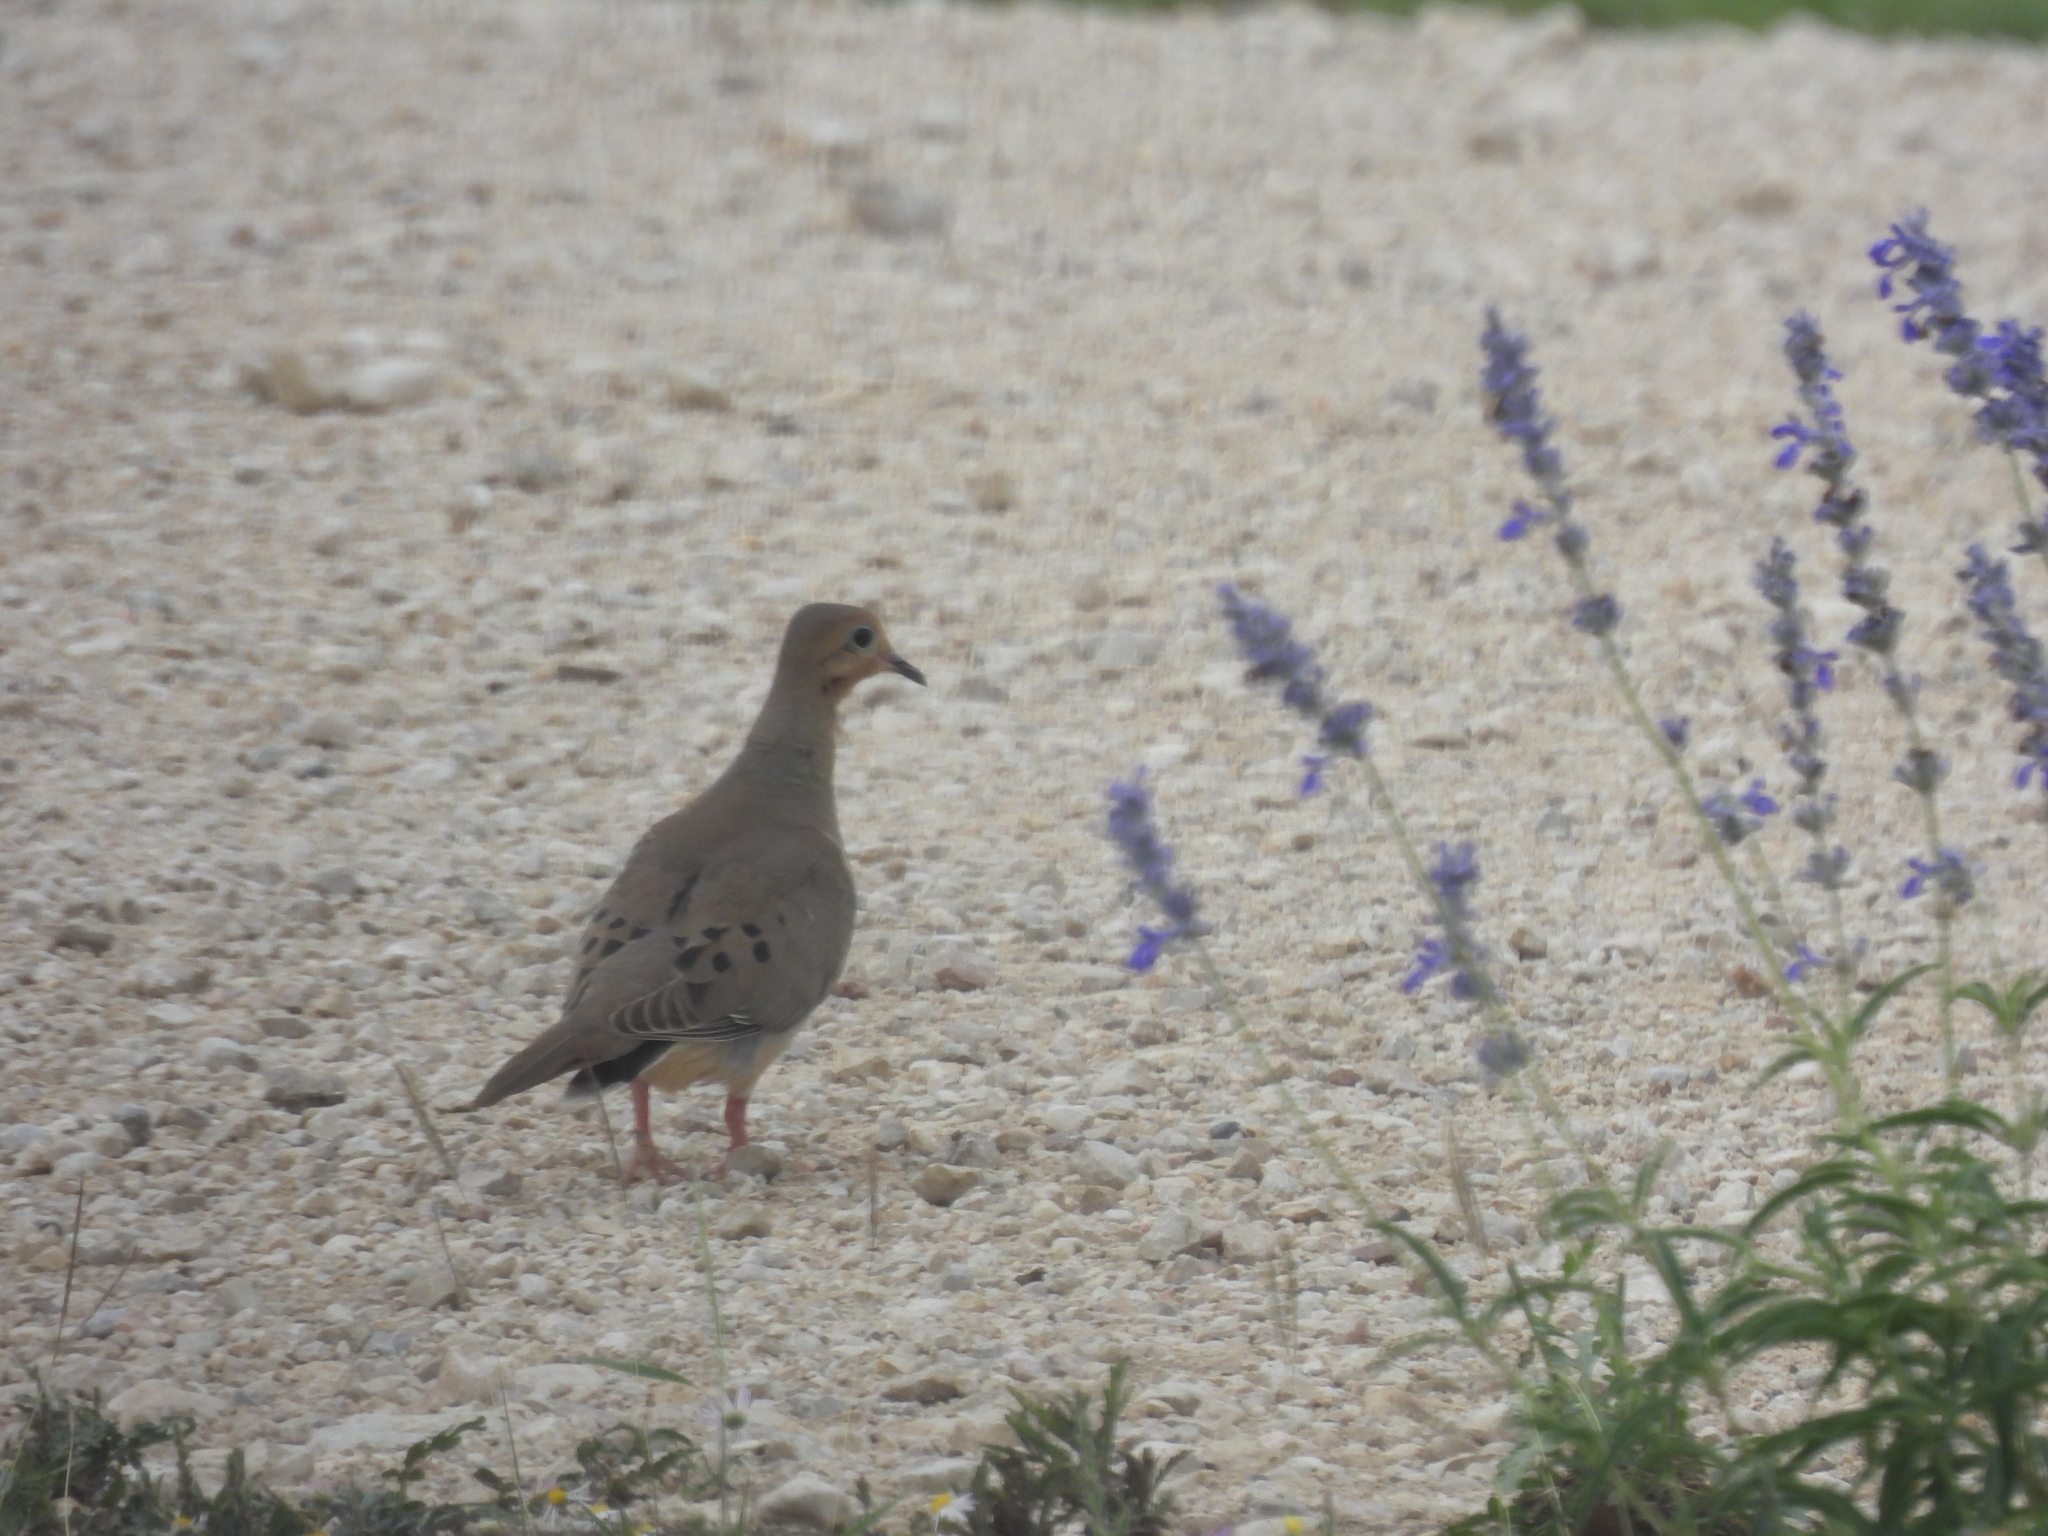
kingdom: Animalia
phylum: Chordata
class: Aves
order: Columbiformes
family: Columbidae
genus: Zenaida
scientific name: Zenaida macroura
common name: Mourning dove
